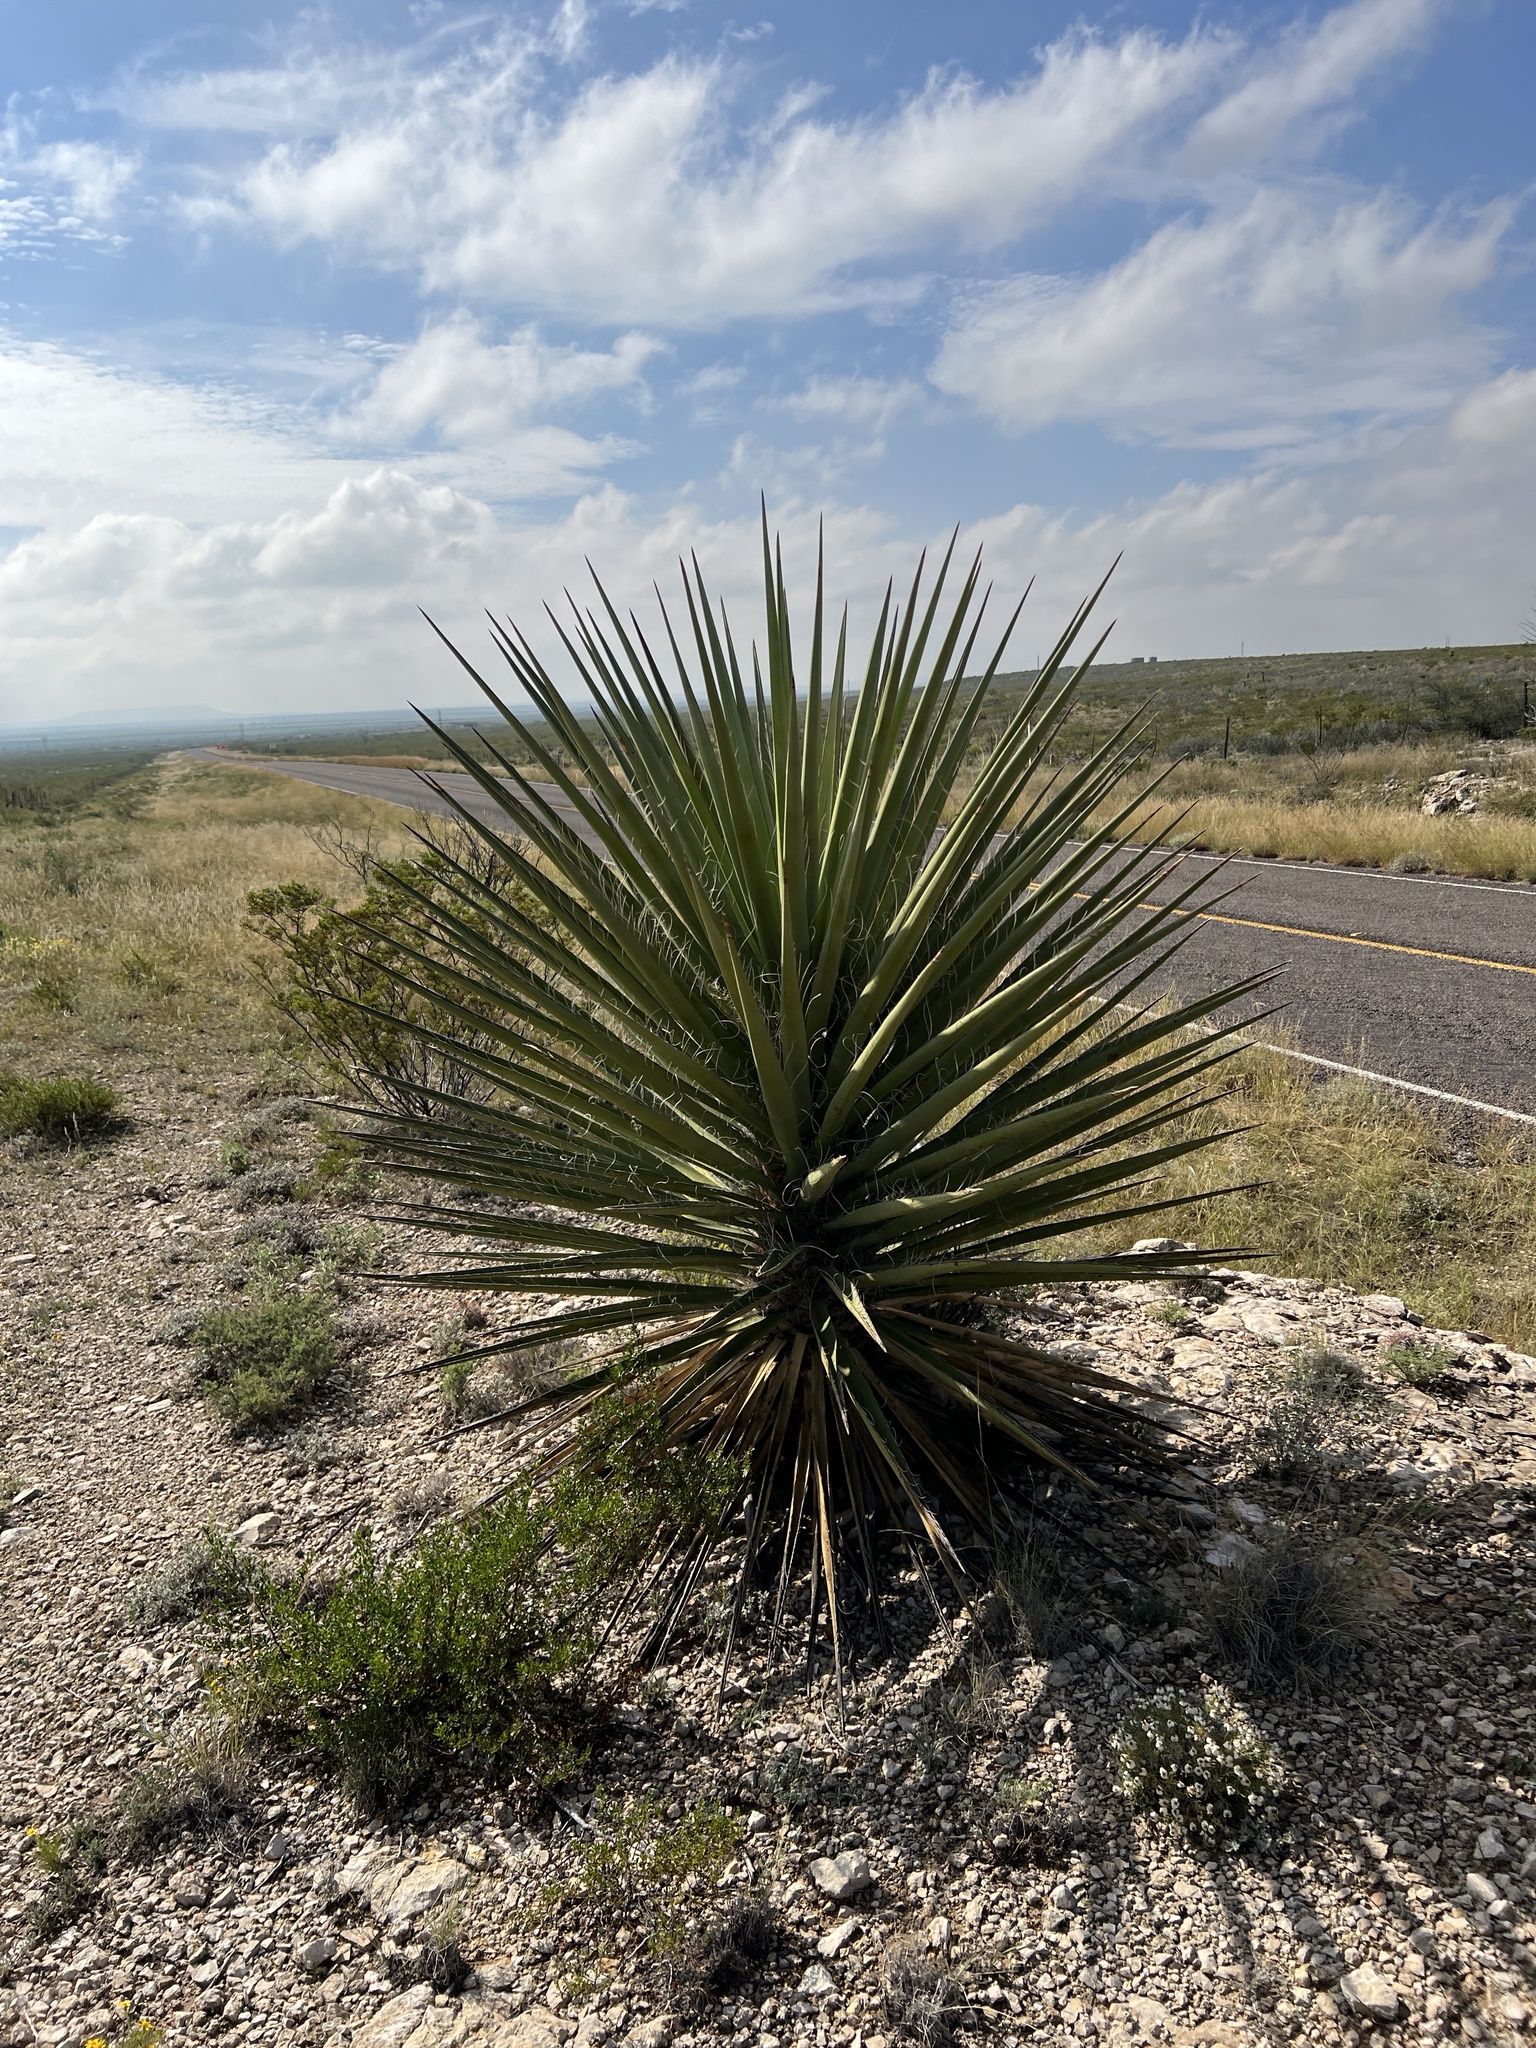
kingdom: Plantae
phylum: Tracheophyta
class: Liliopsida
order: Asparagales
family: Asparagaceae
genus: Yucca
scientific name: Yucca treculiana
